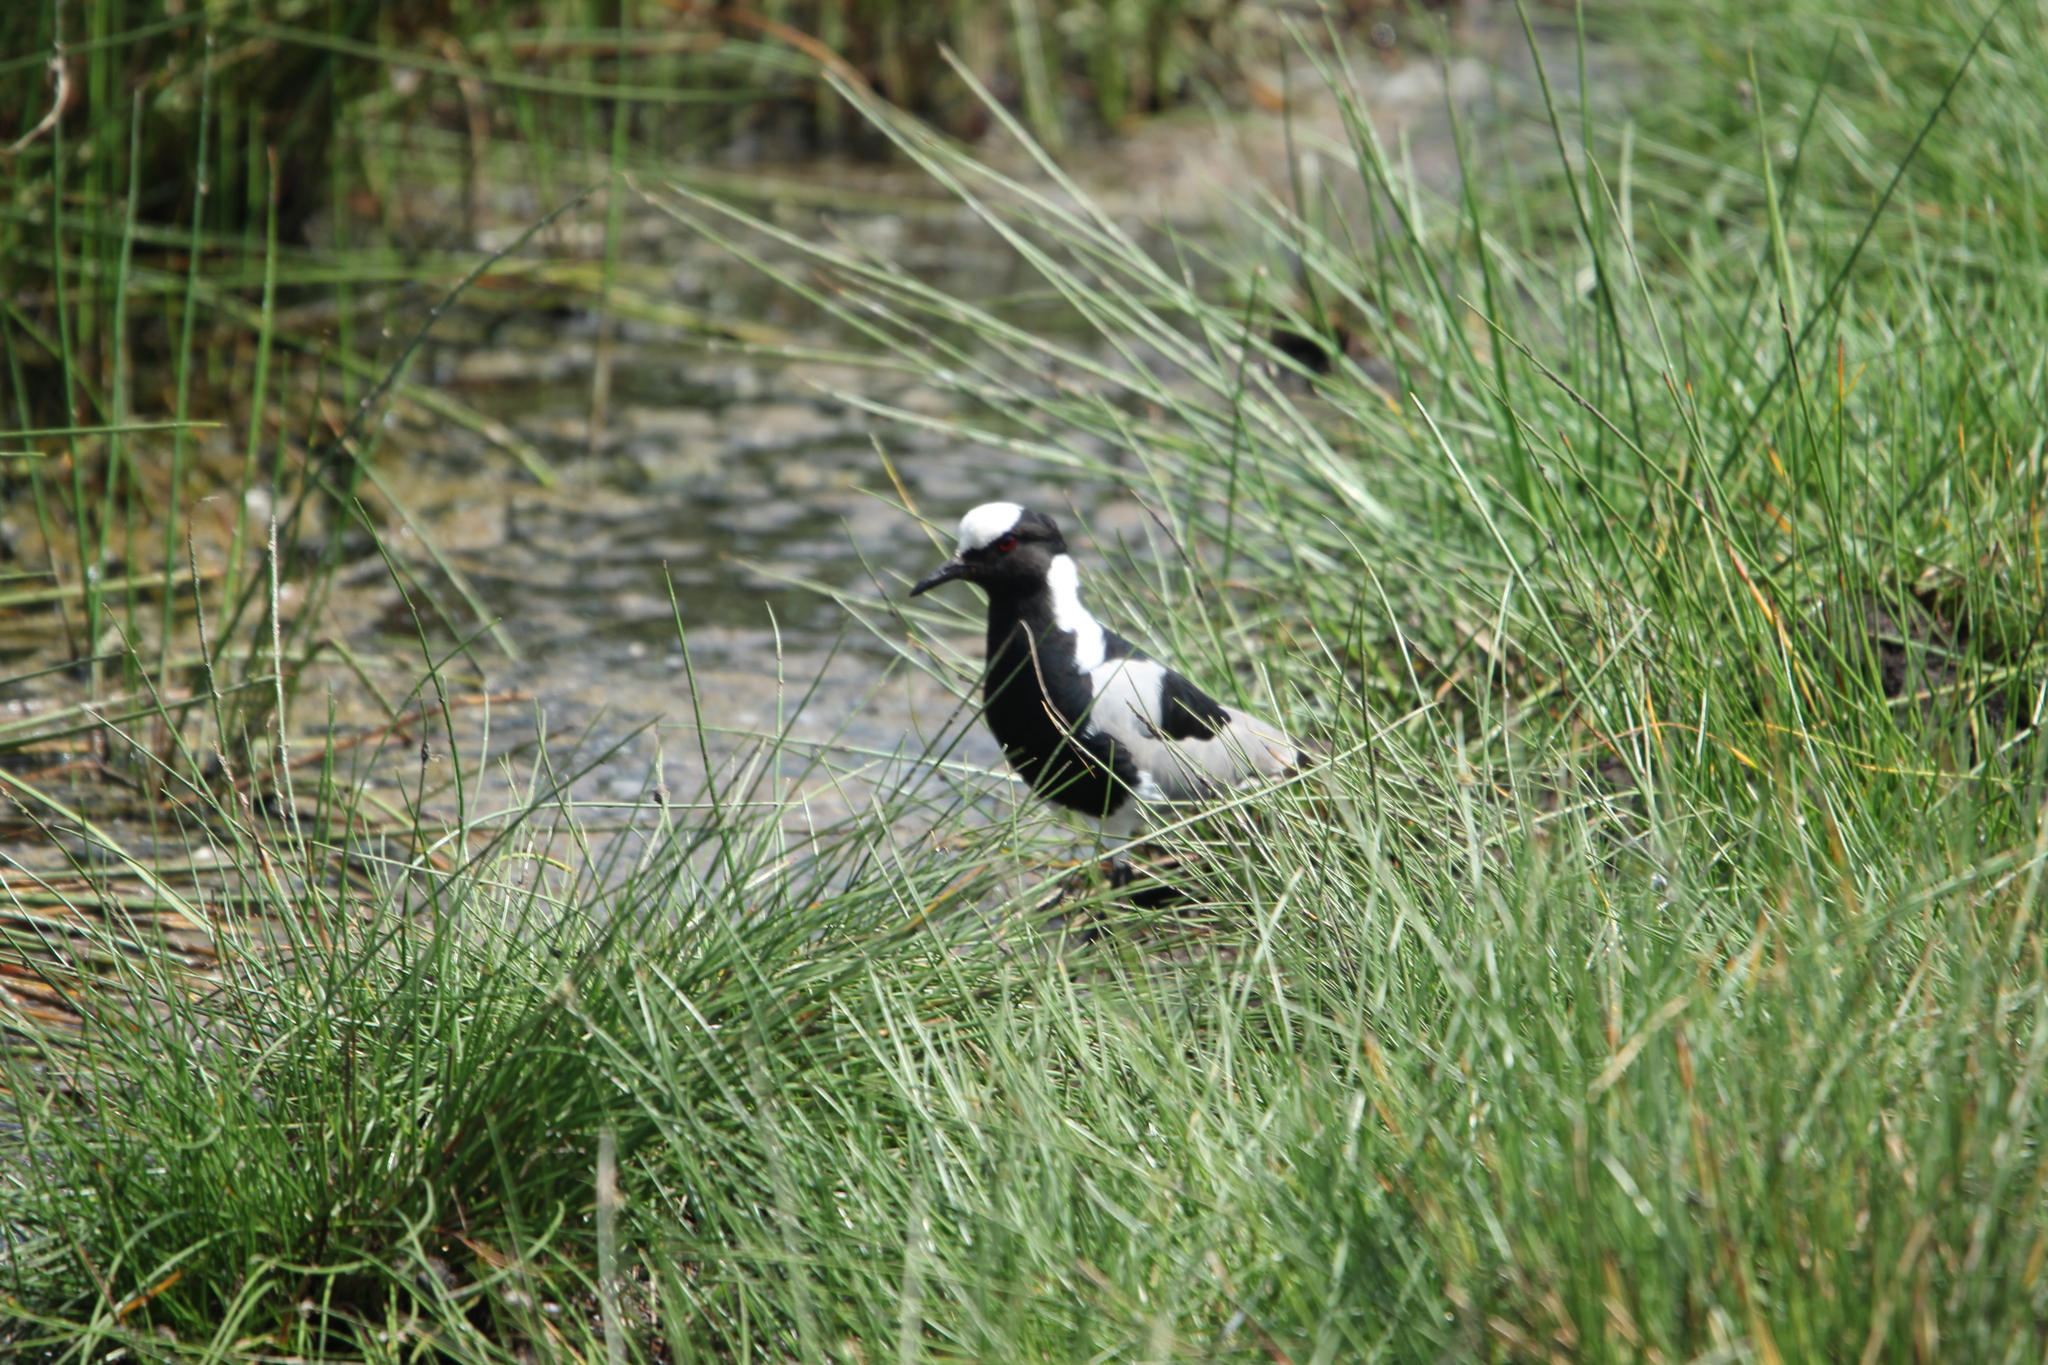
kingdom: Animalia
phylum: Chordata
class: Aves
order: Charadriiformes
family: Charadriidae
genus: Vanellus
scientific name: Vanellus armatus
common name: Blacksmith lapwing
